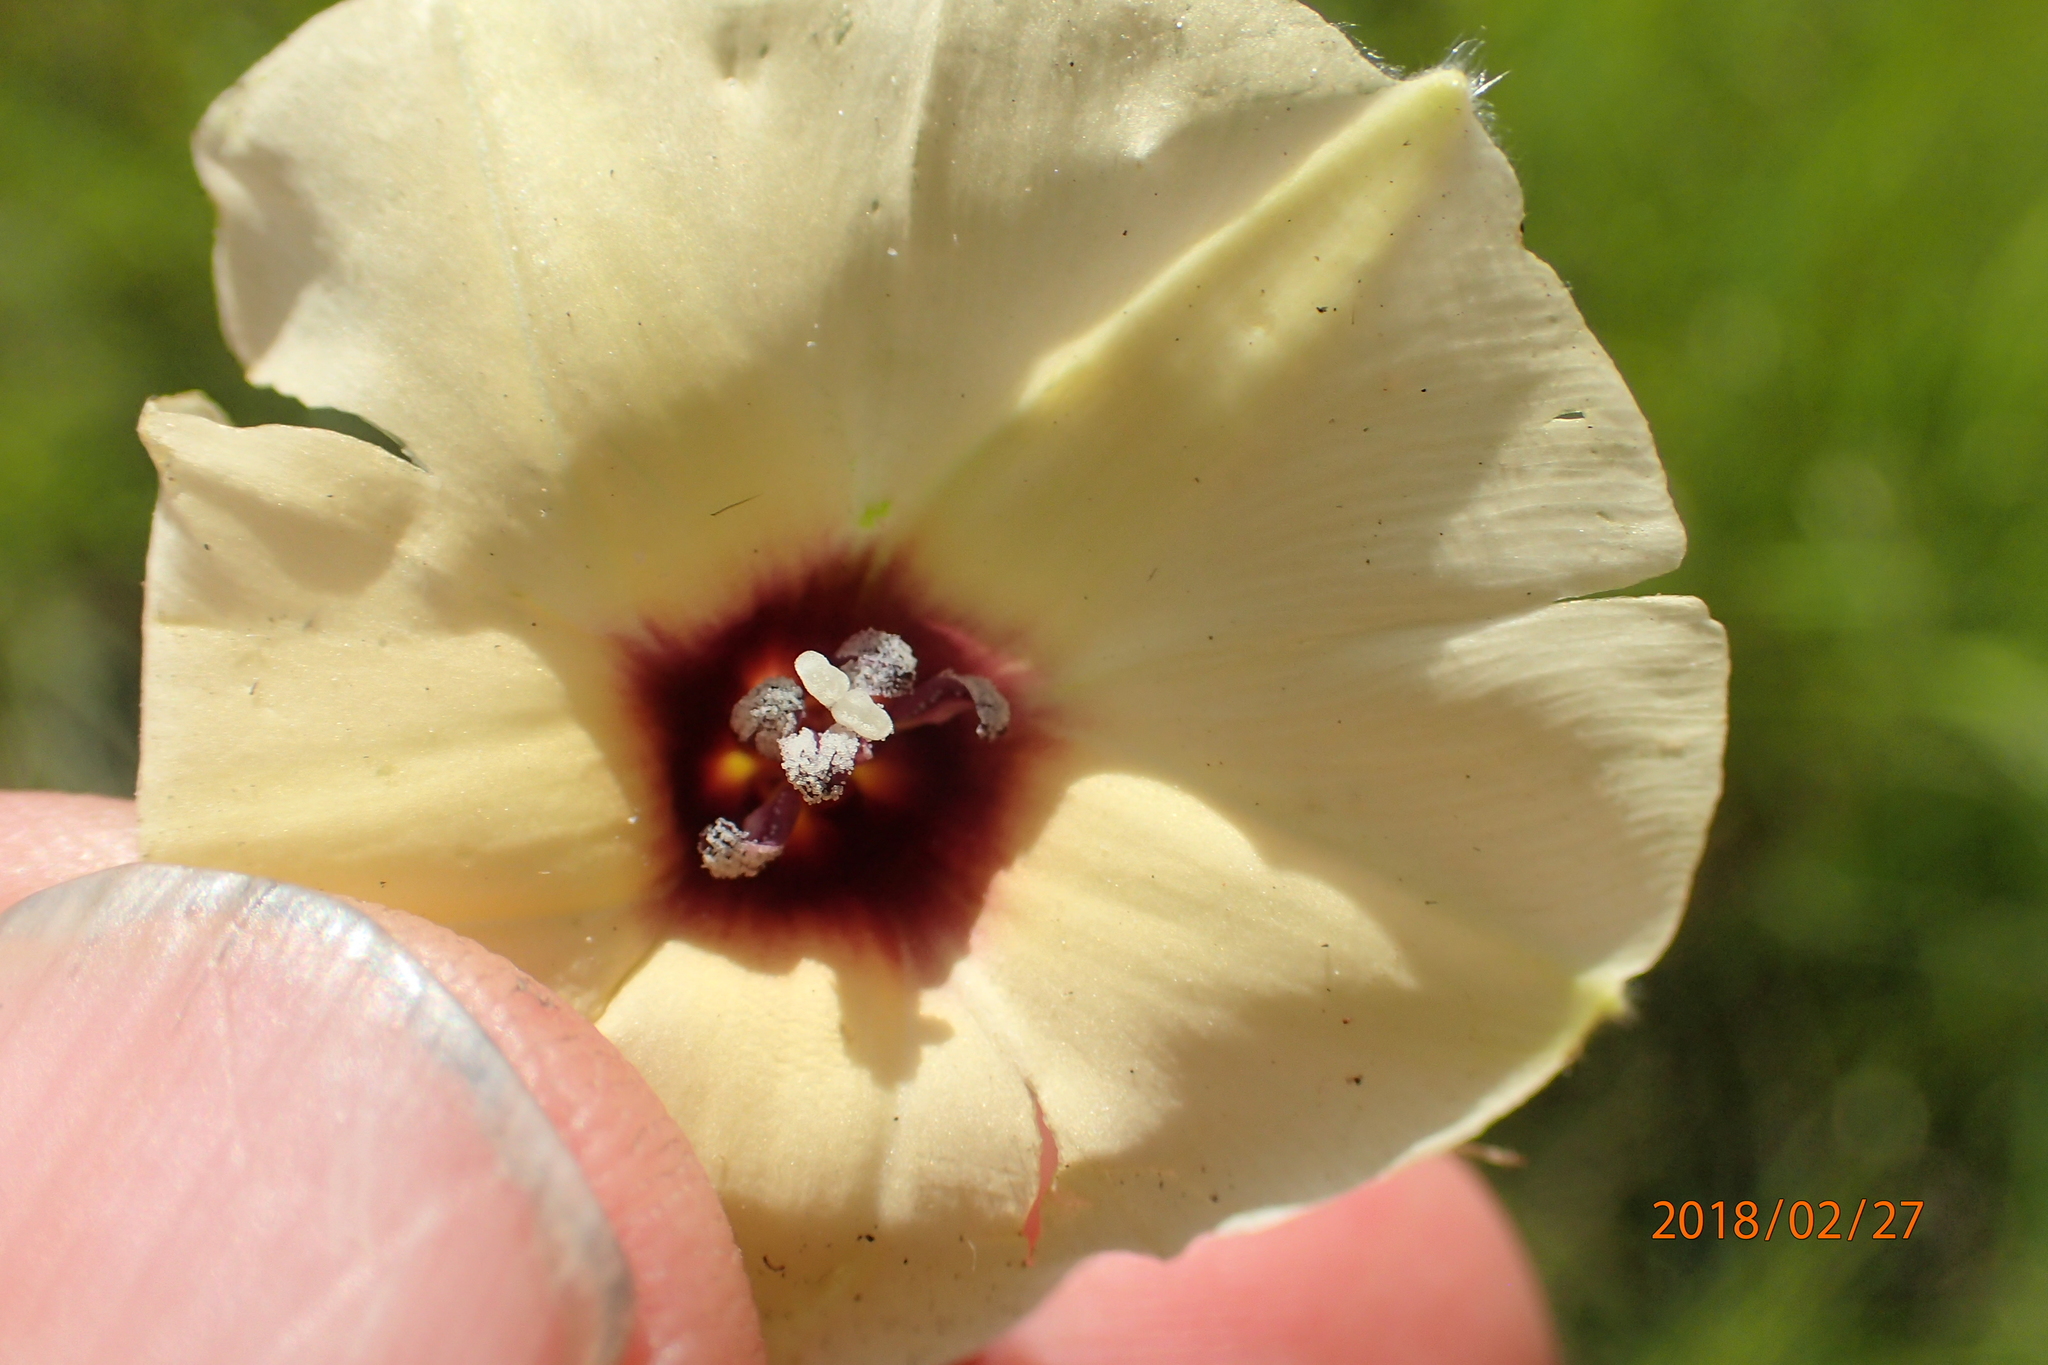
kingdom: Plantae
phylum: Tracheophyta
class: Magnoliopsida
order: Solanales
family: Convolvulaceae
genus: Hewittia
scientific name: Hewittia malabarica
